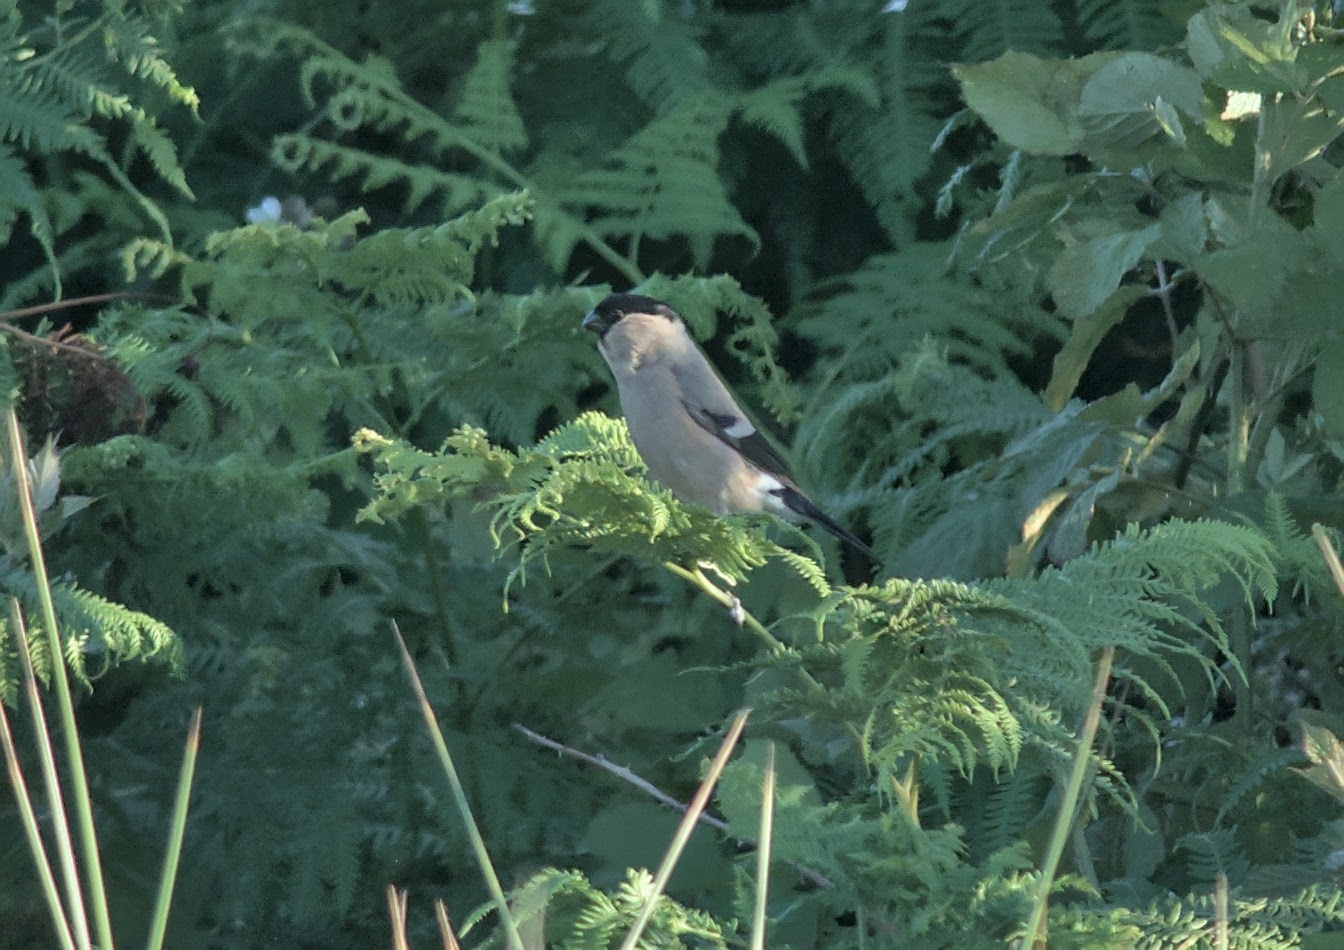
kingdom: Animalia
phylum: Chordata
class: Aves
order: Passeriformes
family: Fringillidae
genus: Pyrrhula
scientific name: Pyrrhula pyrrhula
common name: Eurasian bullfinch
